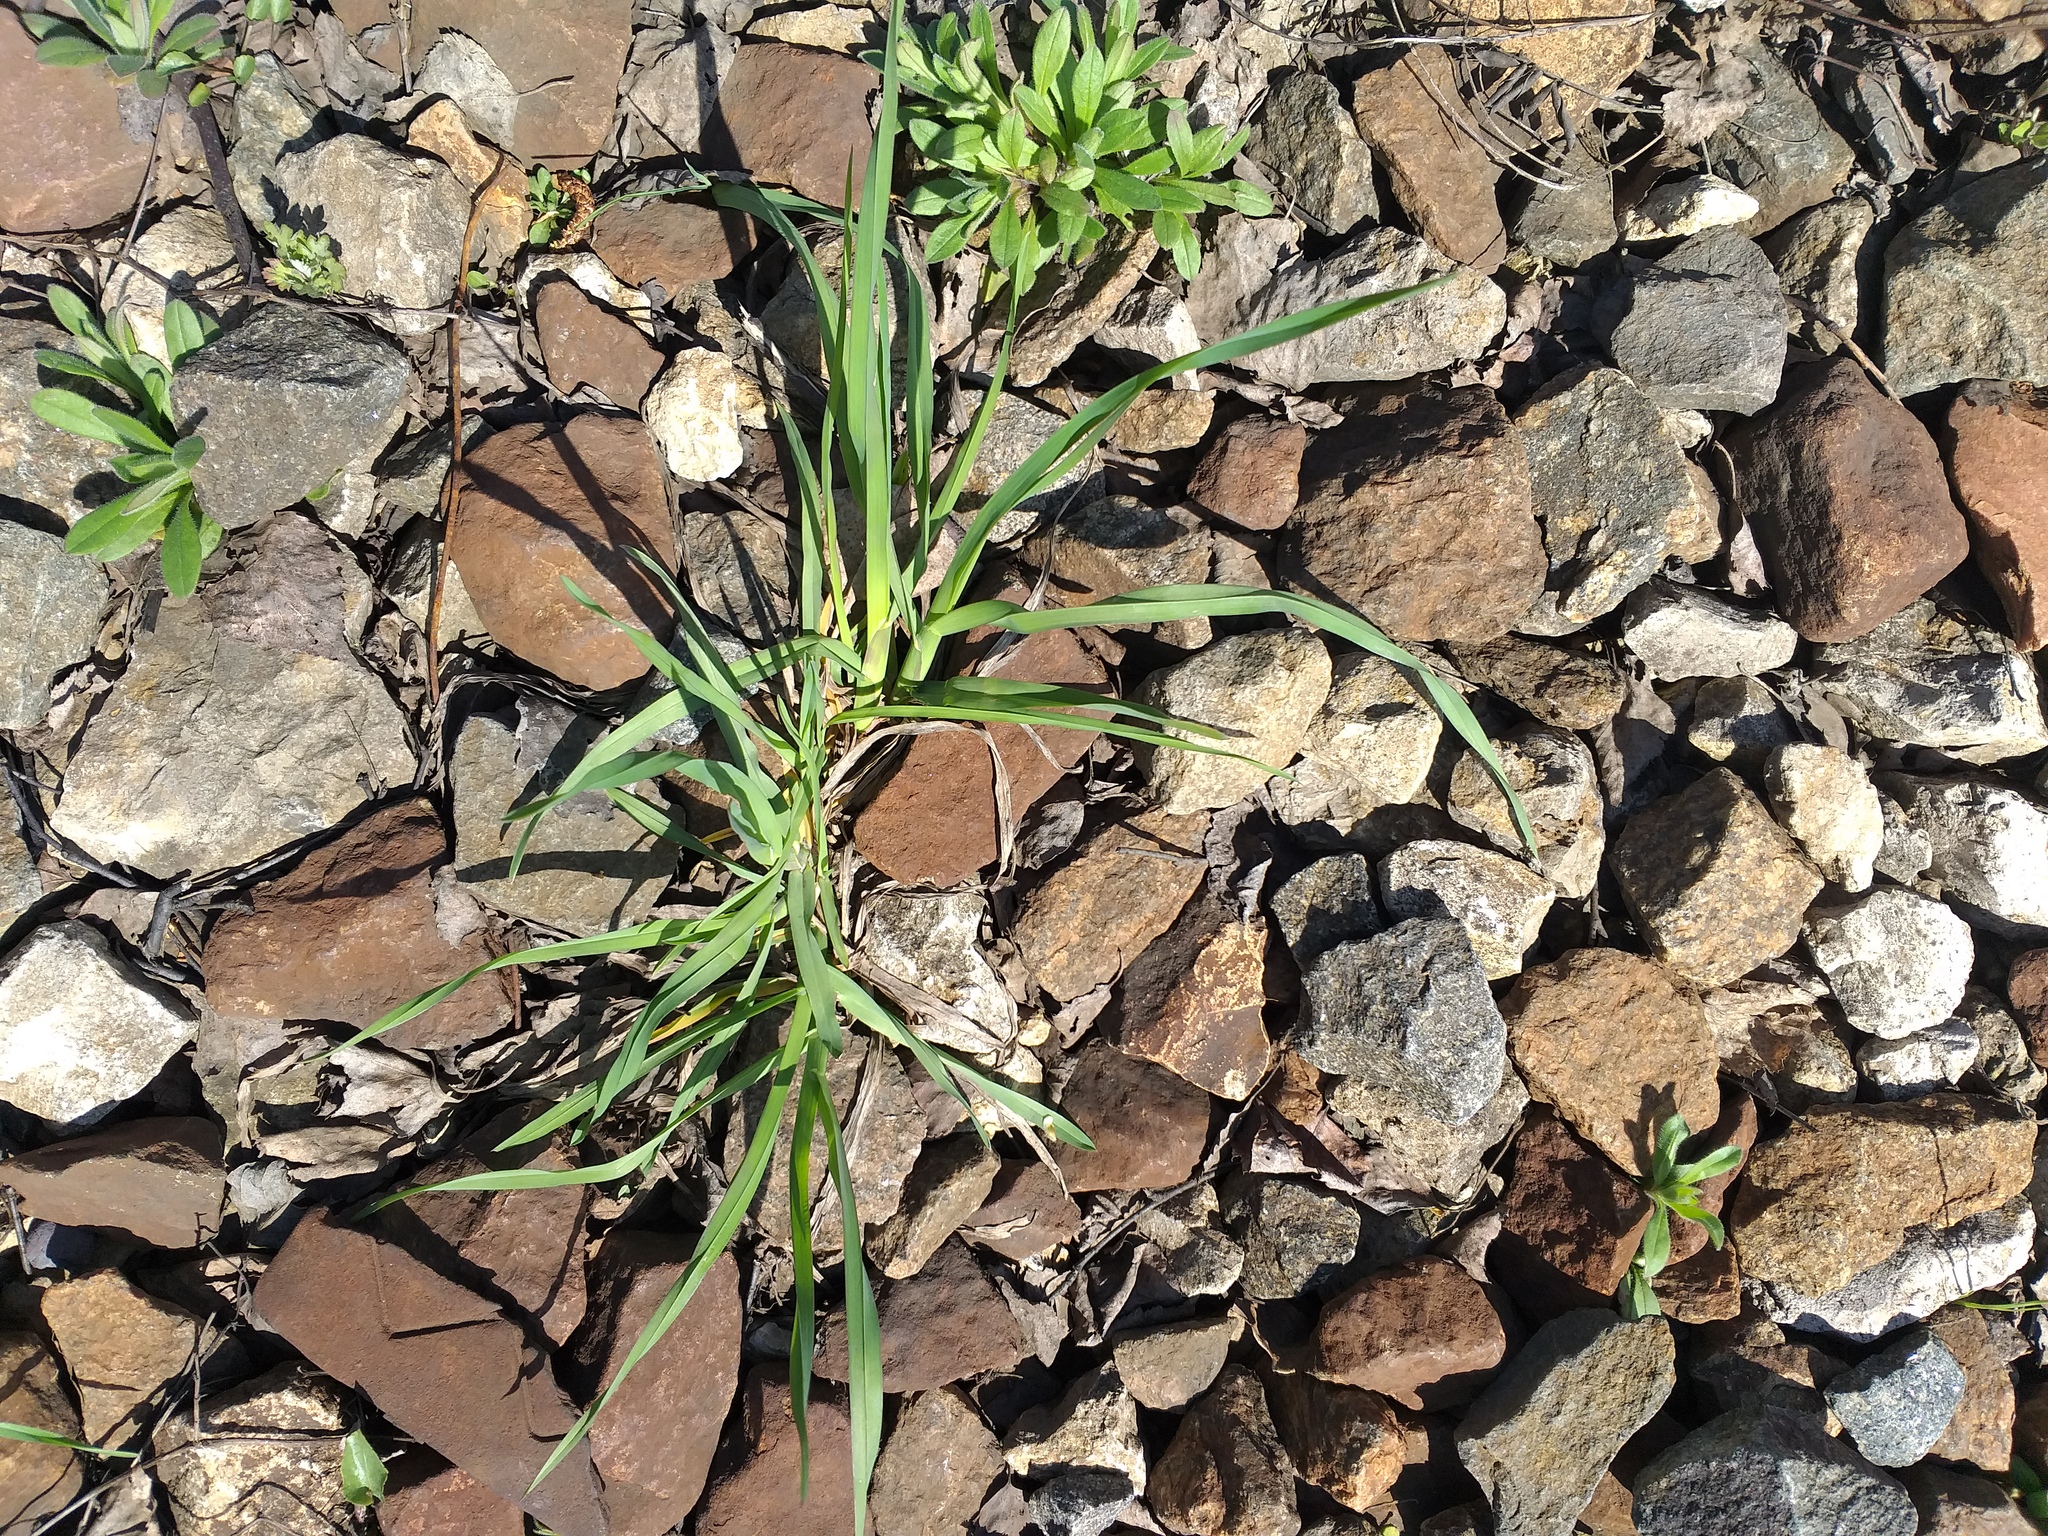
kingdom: Plantae
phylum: Tracheophyta
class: Liliopsida
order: Poales
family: Poaceae
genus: Dactylis
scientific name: Dactylis glomerata
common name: Orchardgrass
